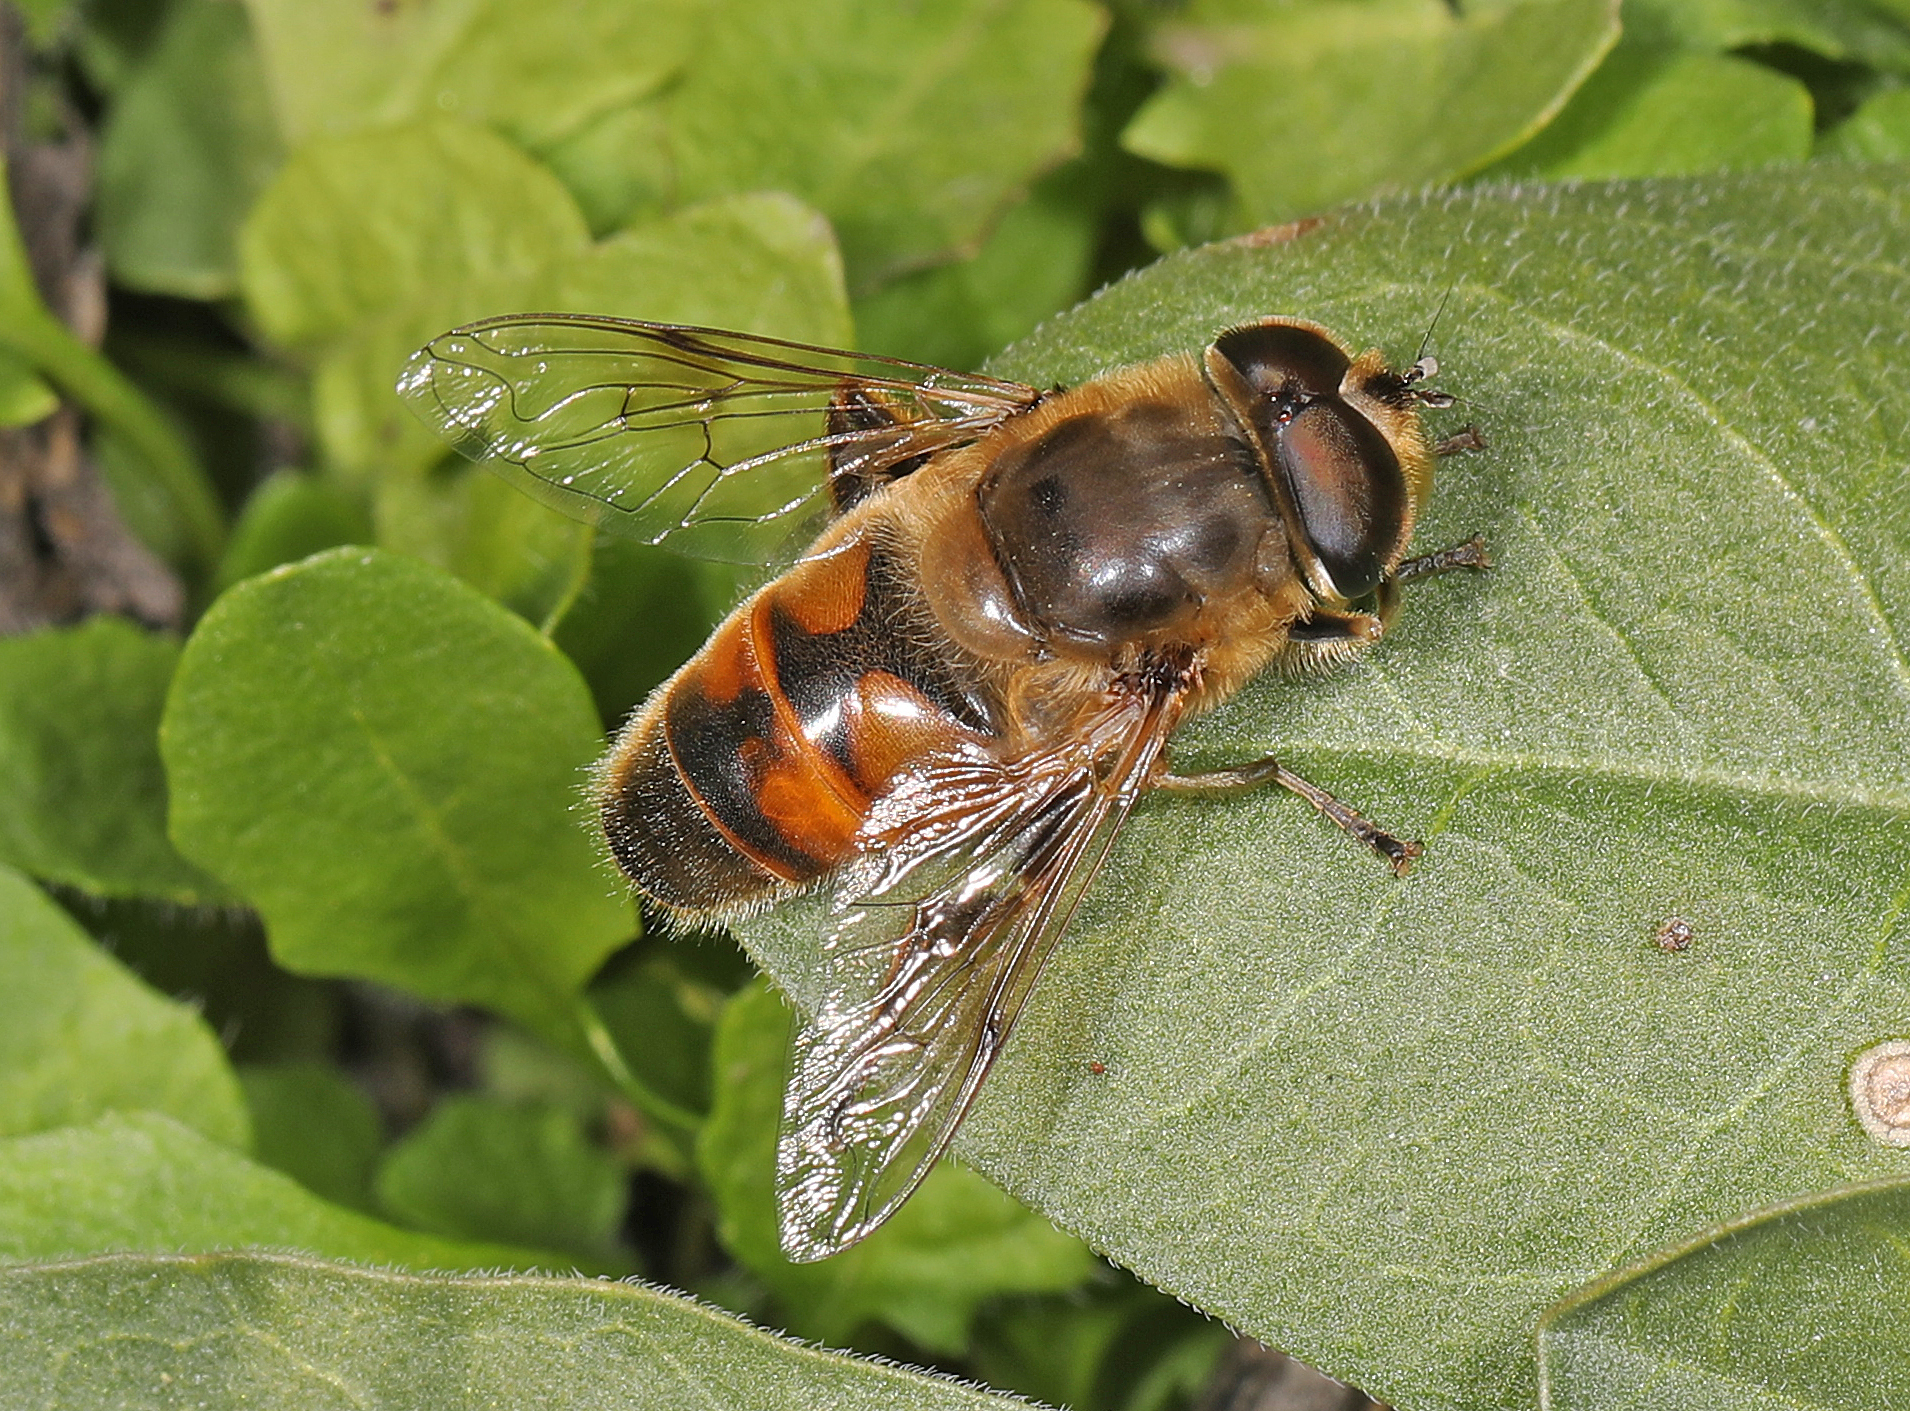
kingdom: Animalia
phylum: Arthropoda
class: Insecta
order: Diptera
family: Syrphidae
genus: Eristalis
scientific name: Eristalis tenax
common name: Drone fly
